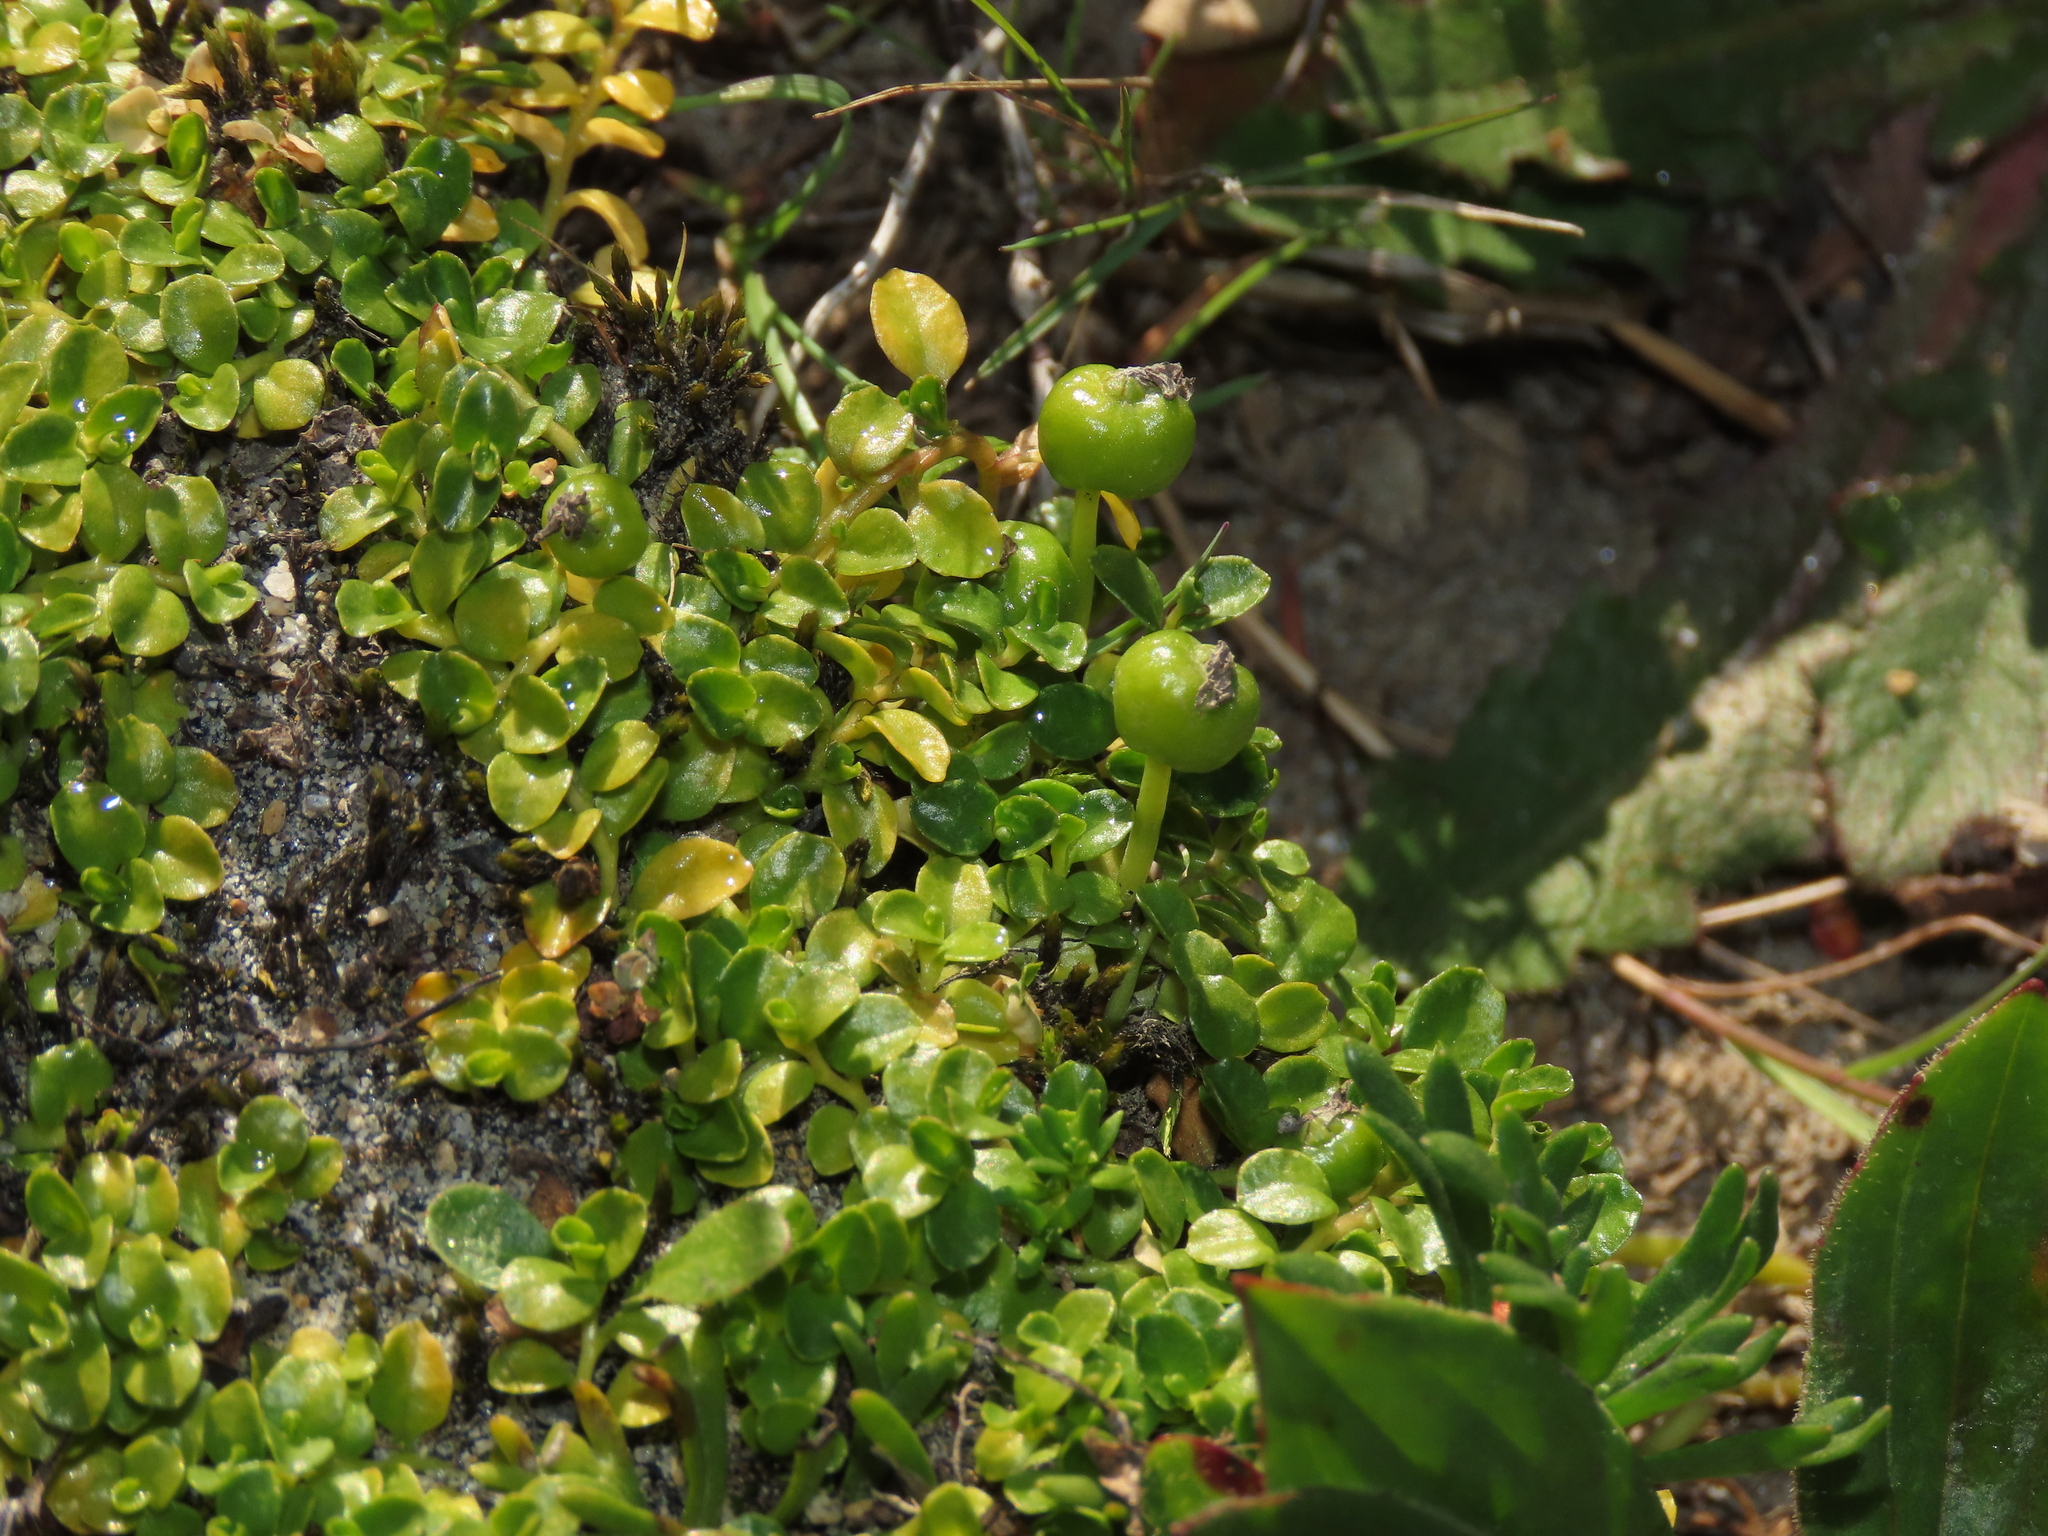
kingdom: Plantae
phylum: Tracheophyta
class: Magnoliopsida
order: Asterales
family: Campanulaceae
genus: Lobelia
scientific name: Lobelia oligophylla
